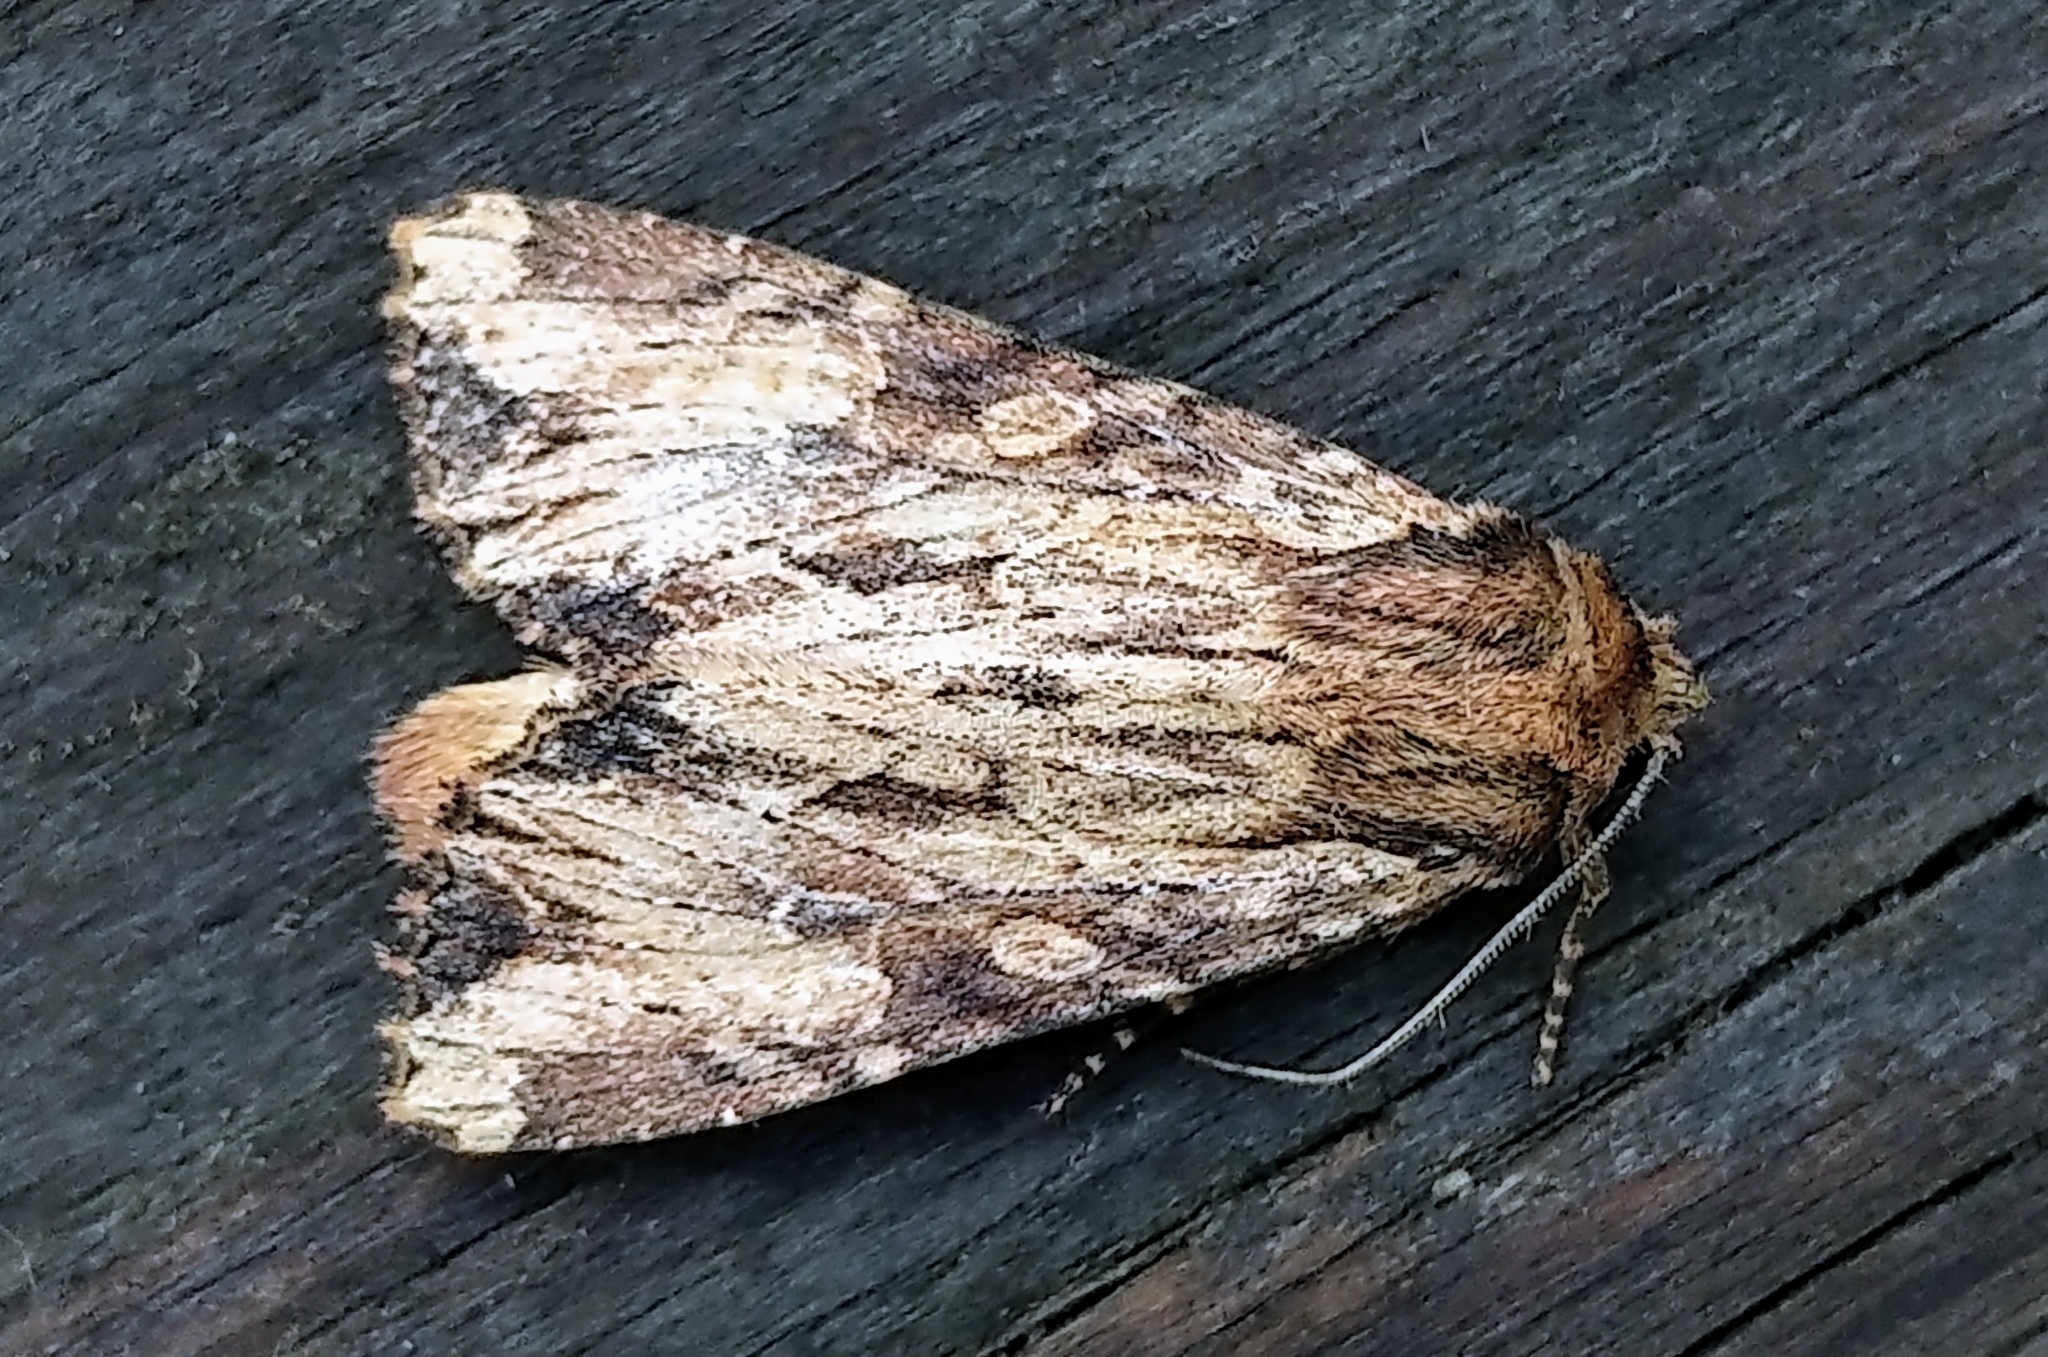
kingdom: Animalia
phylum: Arthropoda
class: Insecta
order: Lepidoptera
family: Noctuidae
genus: Apamea
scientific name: Apamea lignicolora
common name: Wood-colored apamea moth
